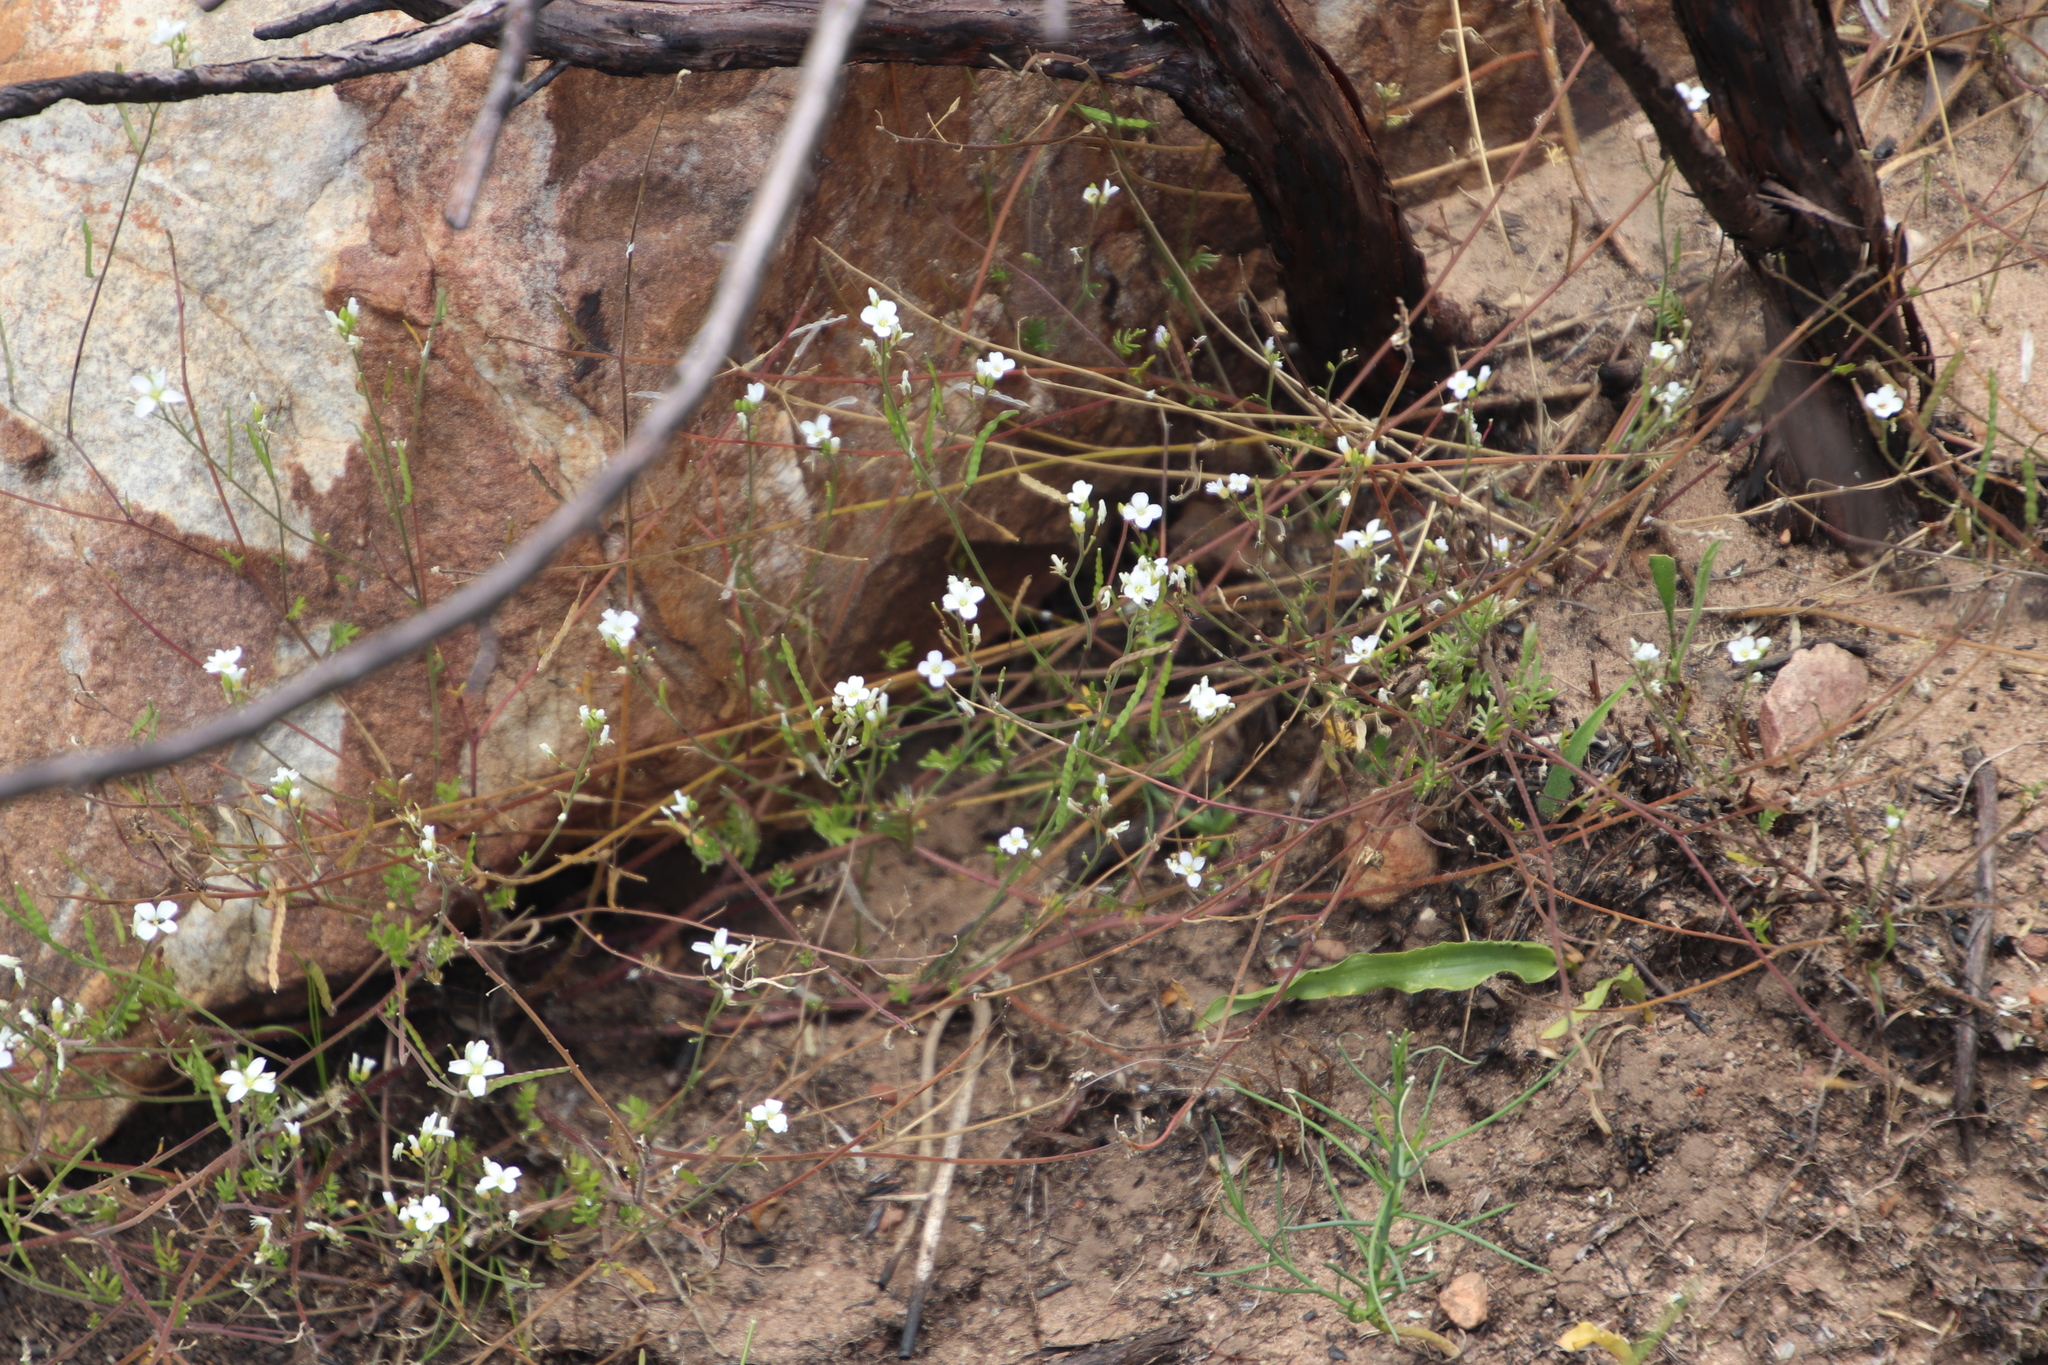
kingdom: Plantae
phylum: Tracheophyta
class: Magnoliopsida
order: Brassicales
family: Brassicaceae
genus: Heliophila
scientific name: Heliophila concatenata
